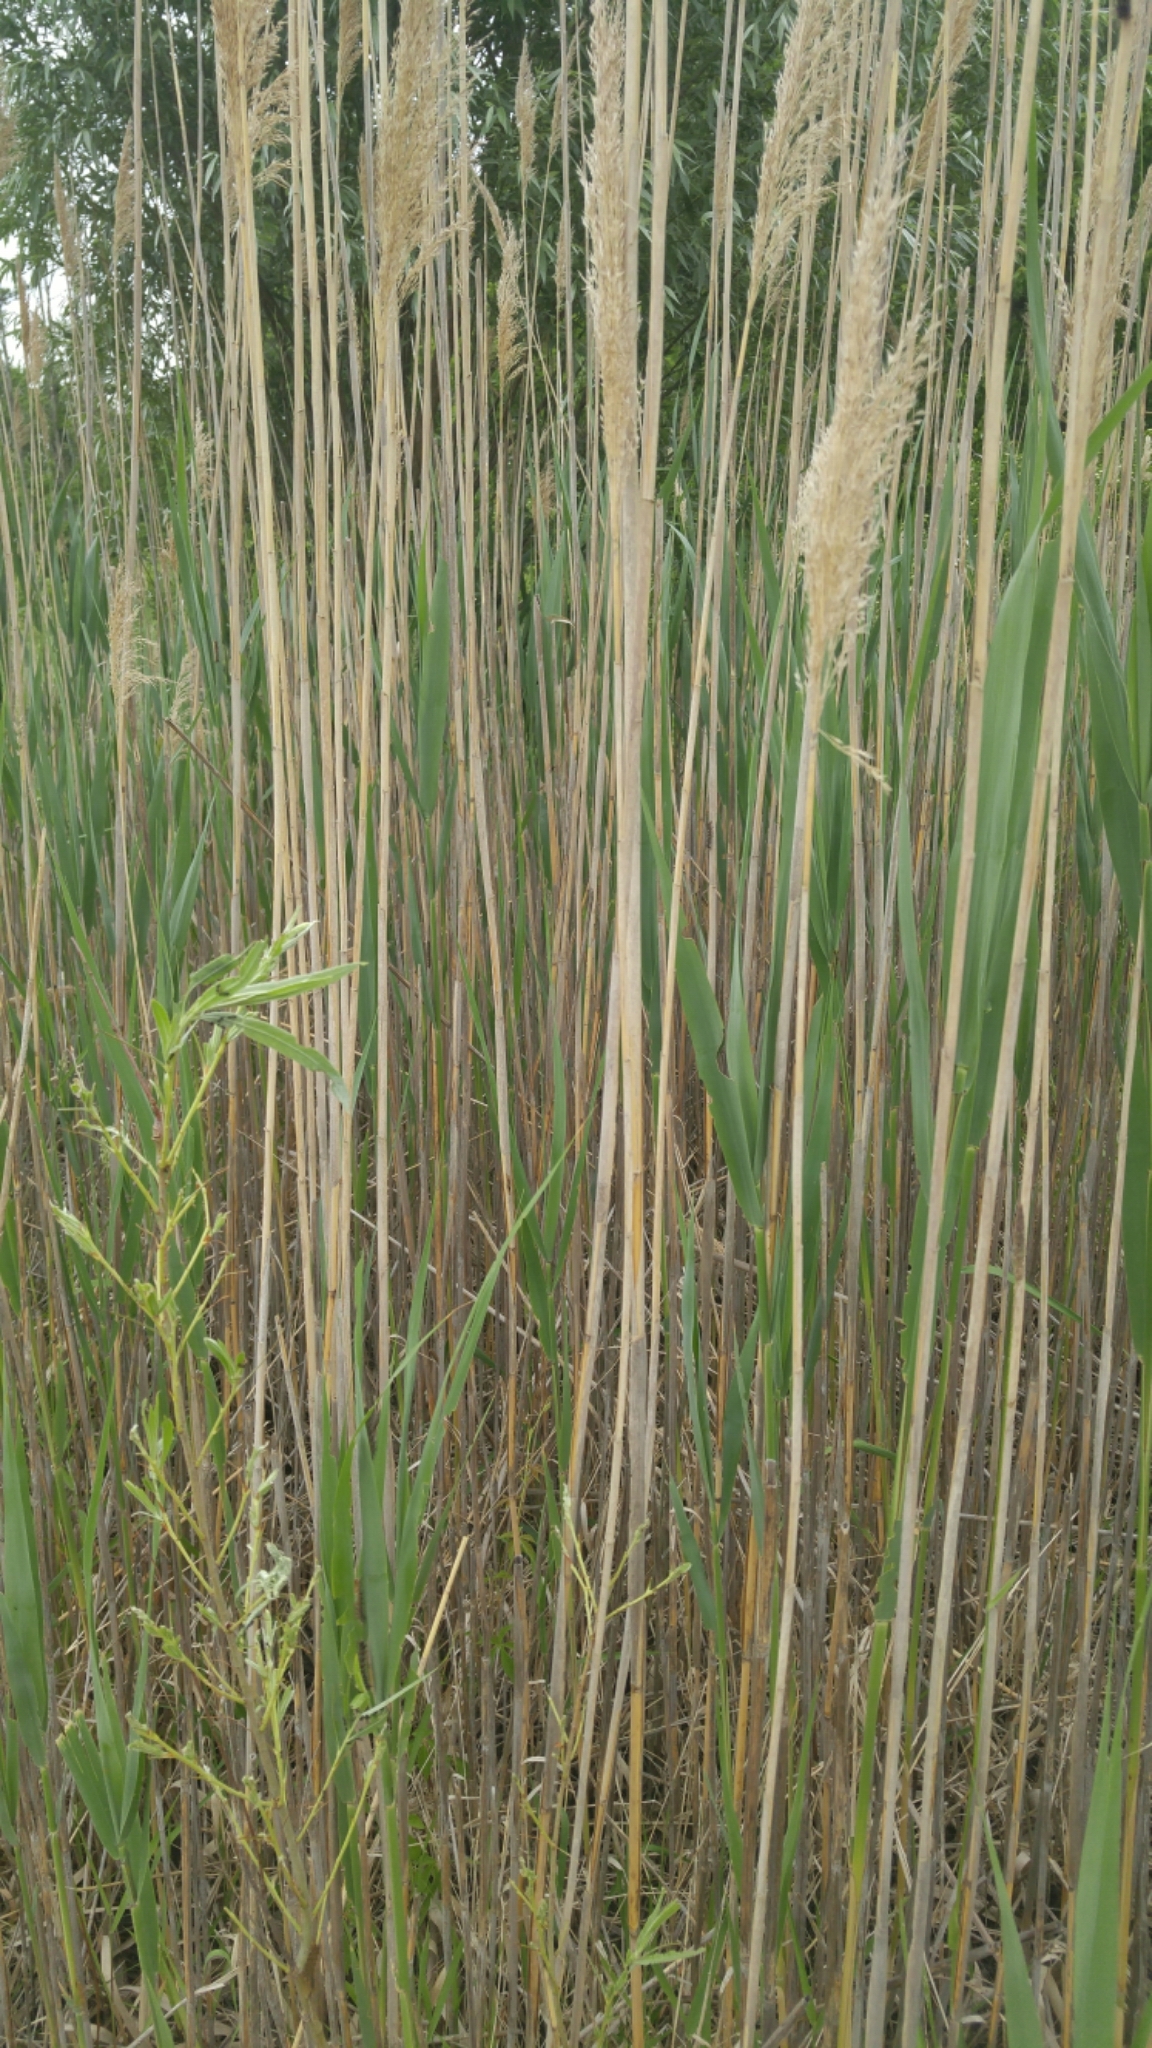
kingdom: Plantae
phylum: Tracheophyta
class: Liliopsida
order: Poales
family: Poaceae
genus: Phragmites
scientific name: Phragmites australis
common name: Common reed
